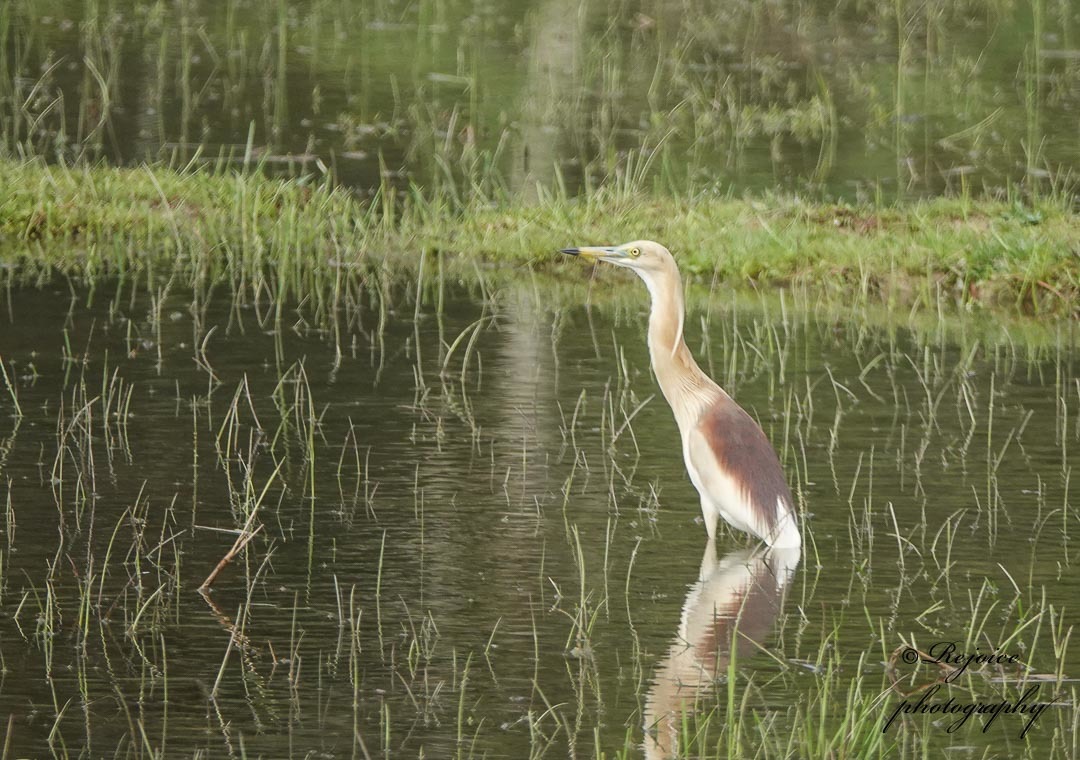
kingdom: Animalia
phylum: Chordata
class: Aves
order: Pelecaniformes
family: Ardeidae
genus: Ardeola
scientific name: Ardeola grayii
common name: Indian pond heron
